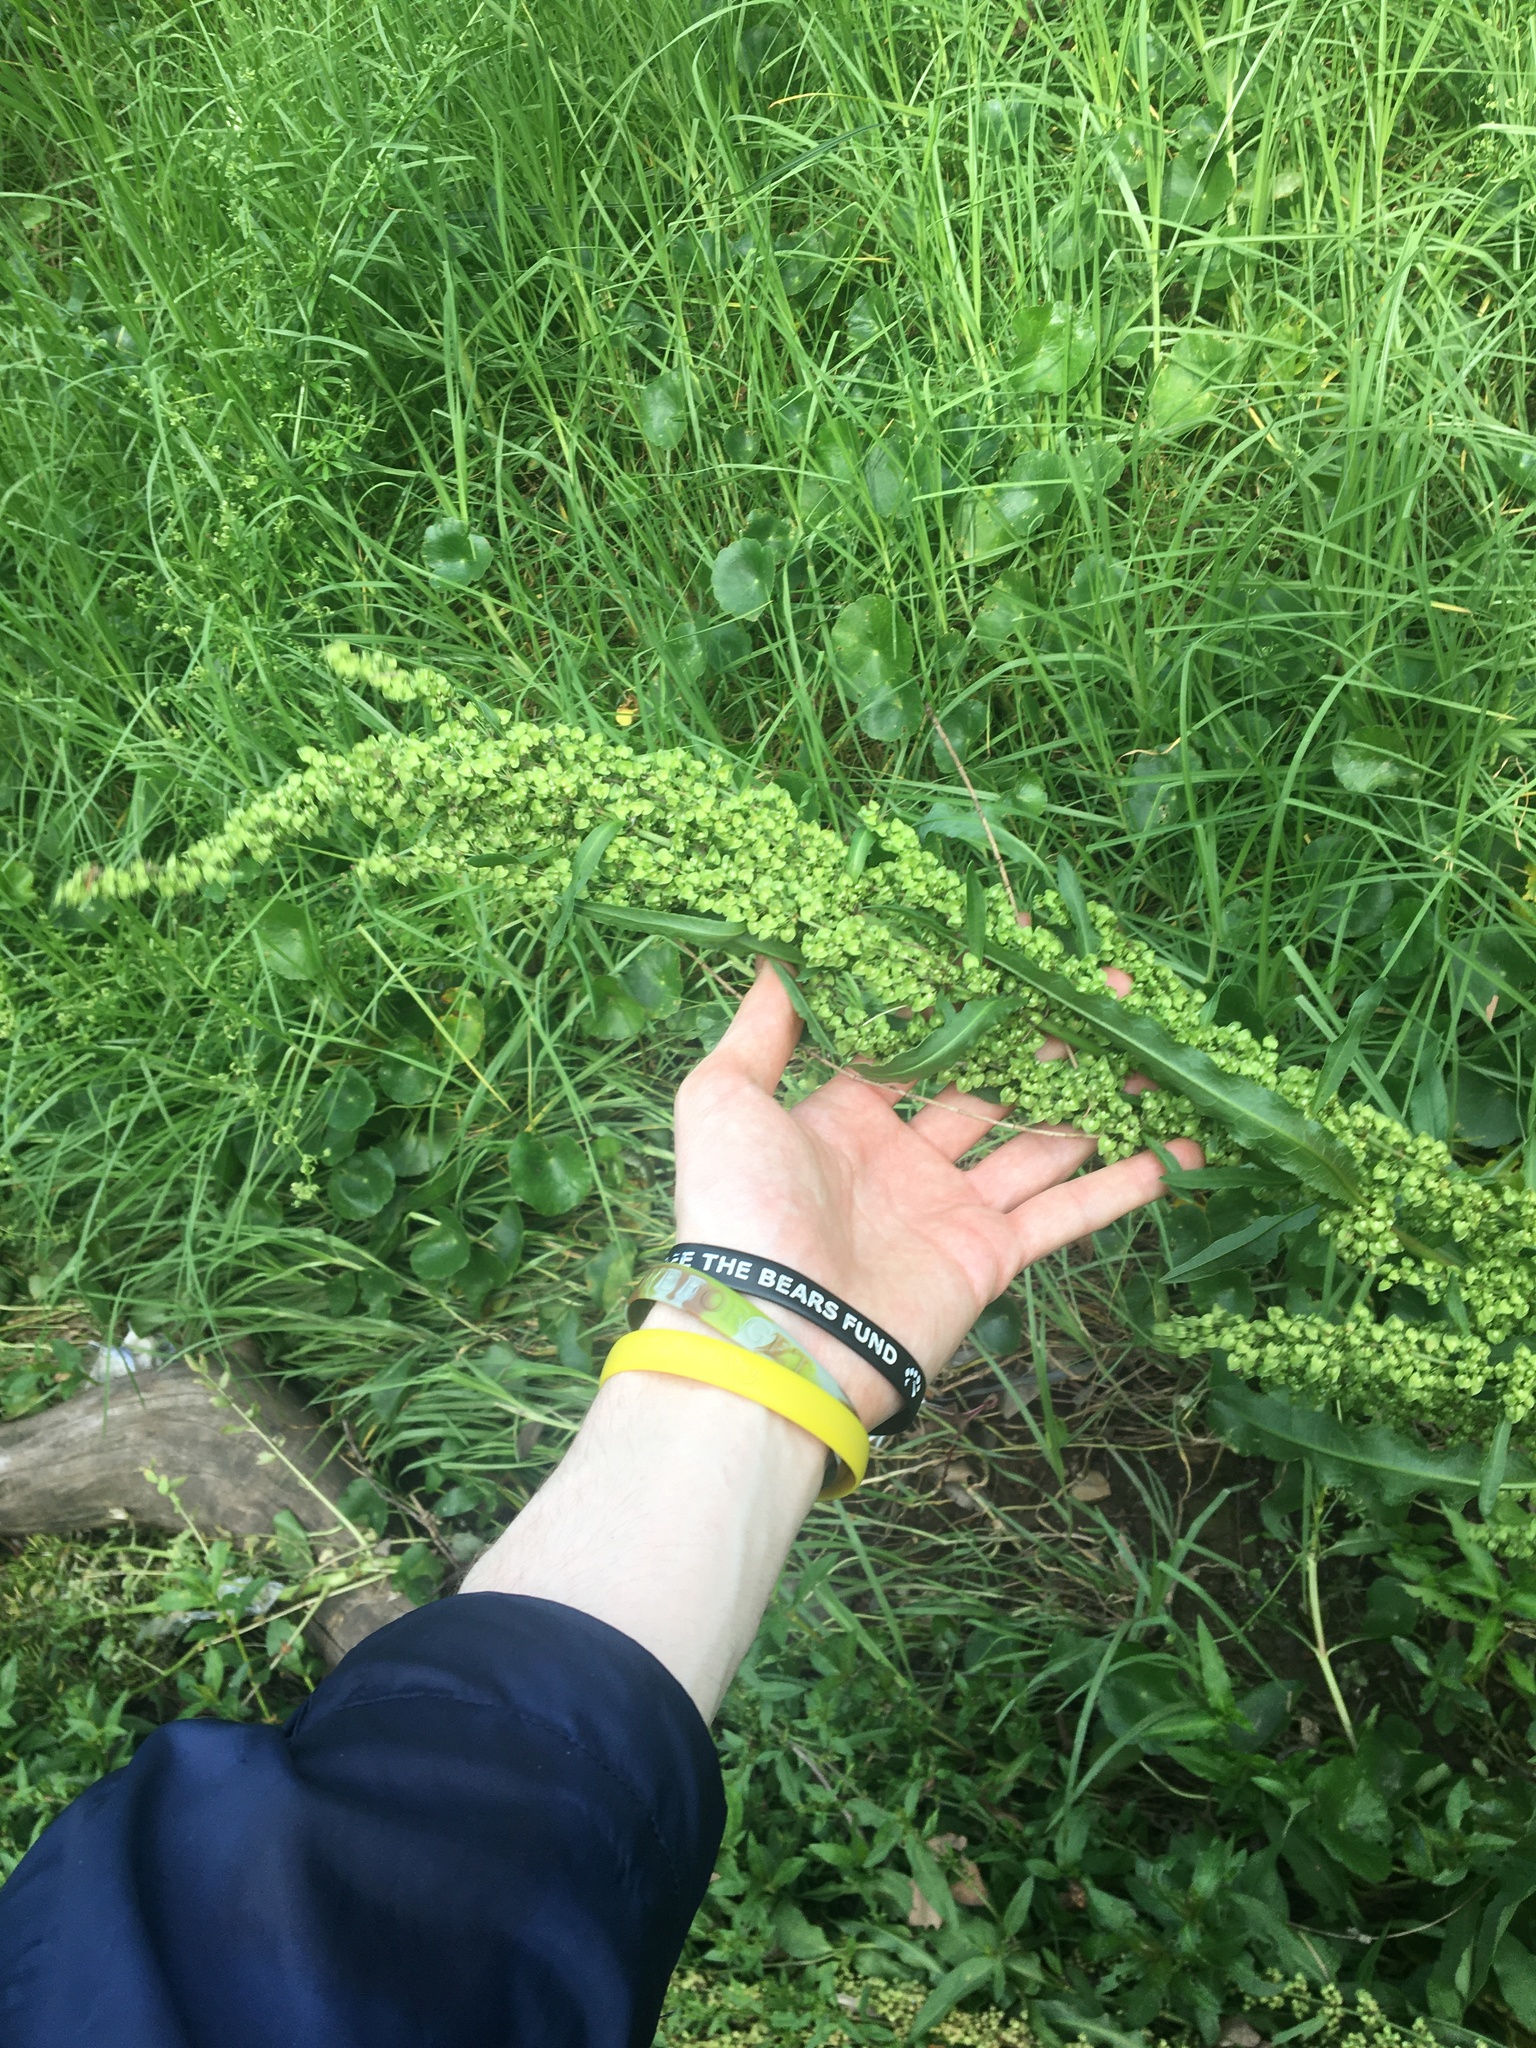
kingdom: Plantae
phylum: Tracheophyta
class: Magnoliopsida
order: Caryophyllales
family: Polygonaceae
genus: Rumex
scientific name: Rumex crispus
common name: Curled dock
